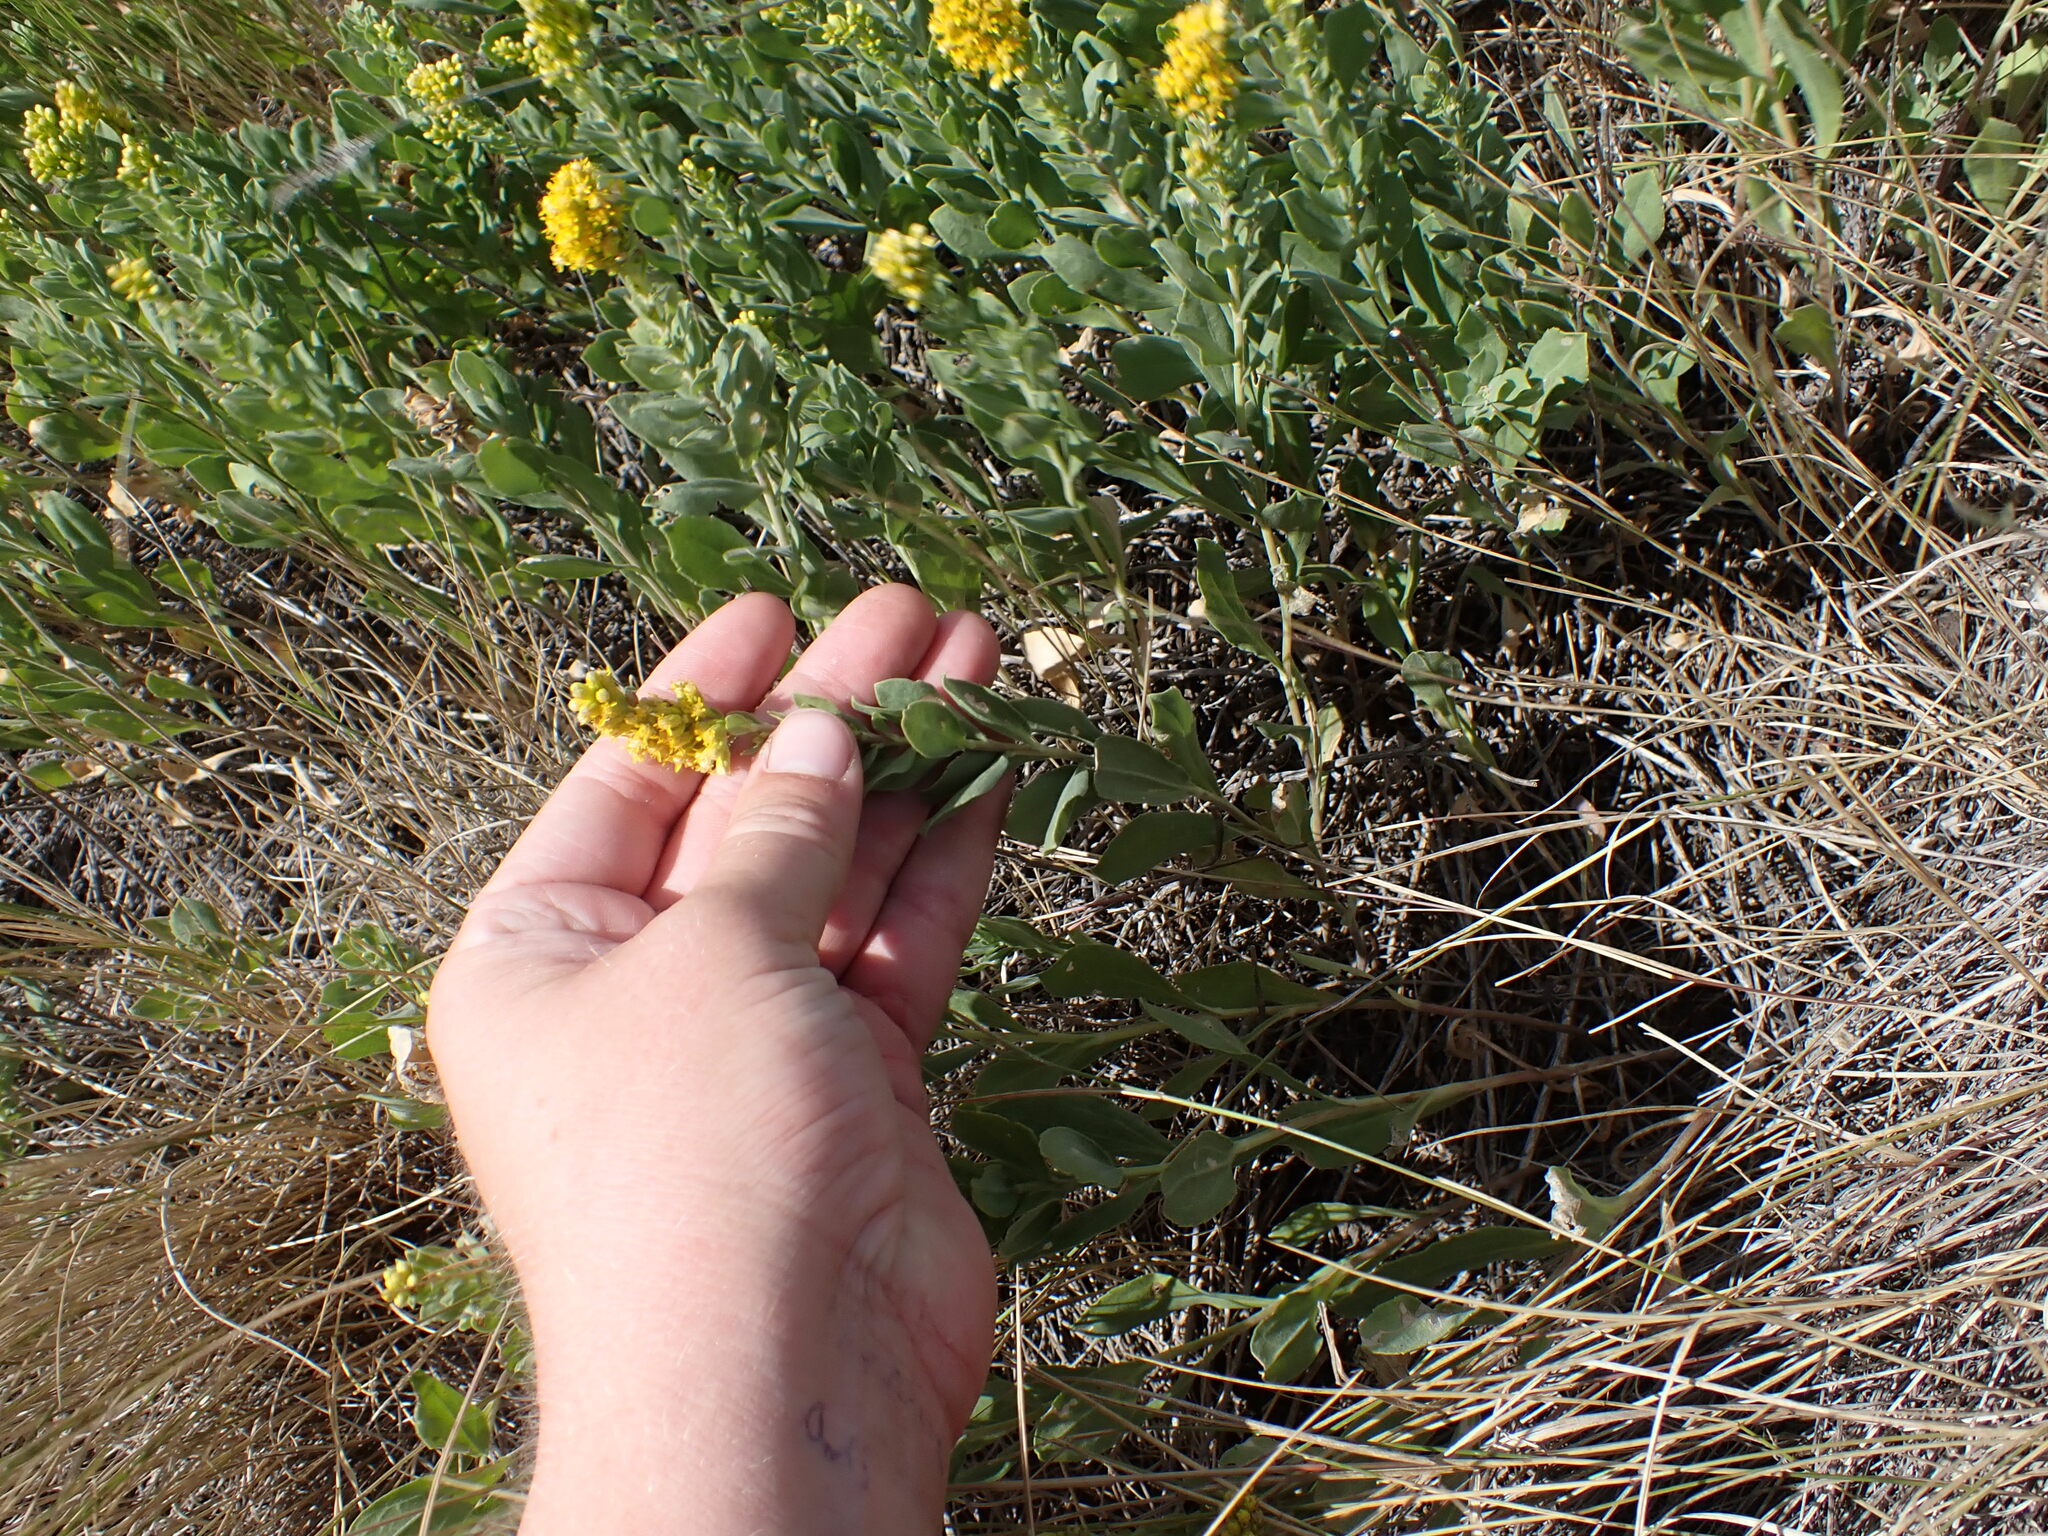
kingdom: Plantae
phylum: Tracheophyta
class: Magnoliopsida
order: Asterales
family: Asteraceae
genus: Solidago
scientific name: Solidago mollis
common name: Ashly goldenrod
